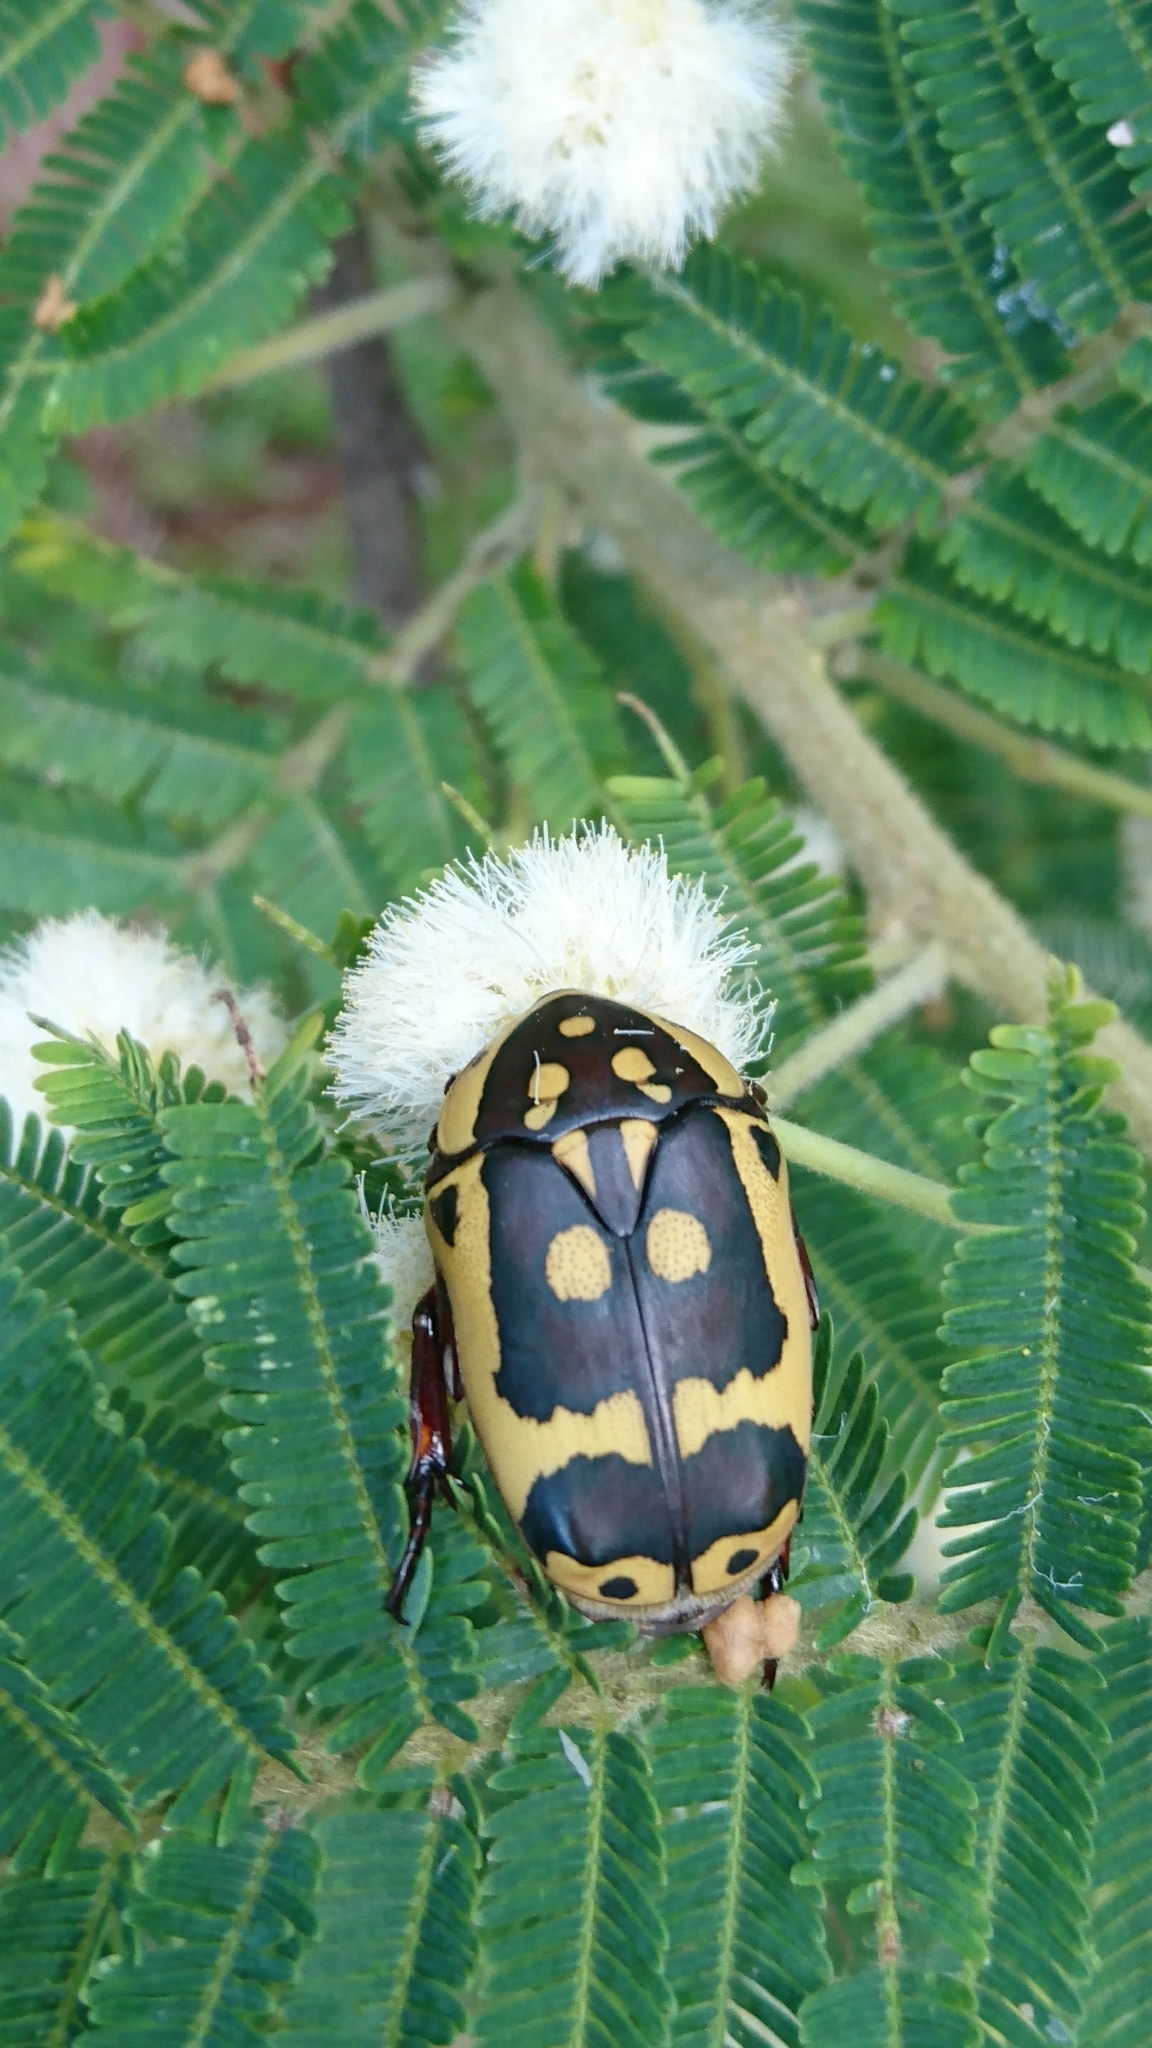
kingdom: Animalia
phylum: Arthropoda
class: Insecta
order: Coleoptera
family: Scarabaeidae
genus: Pachnoda
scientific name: Pachnoda sinuata
